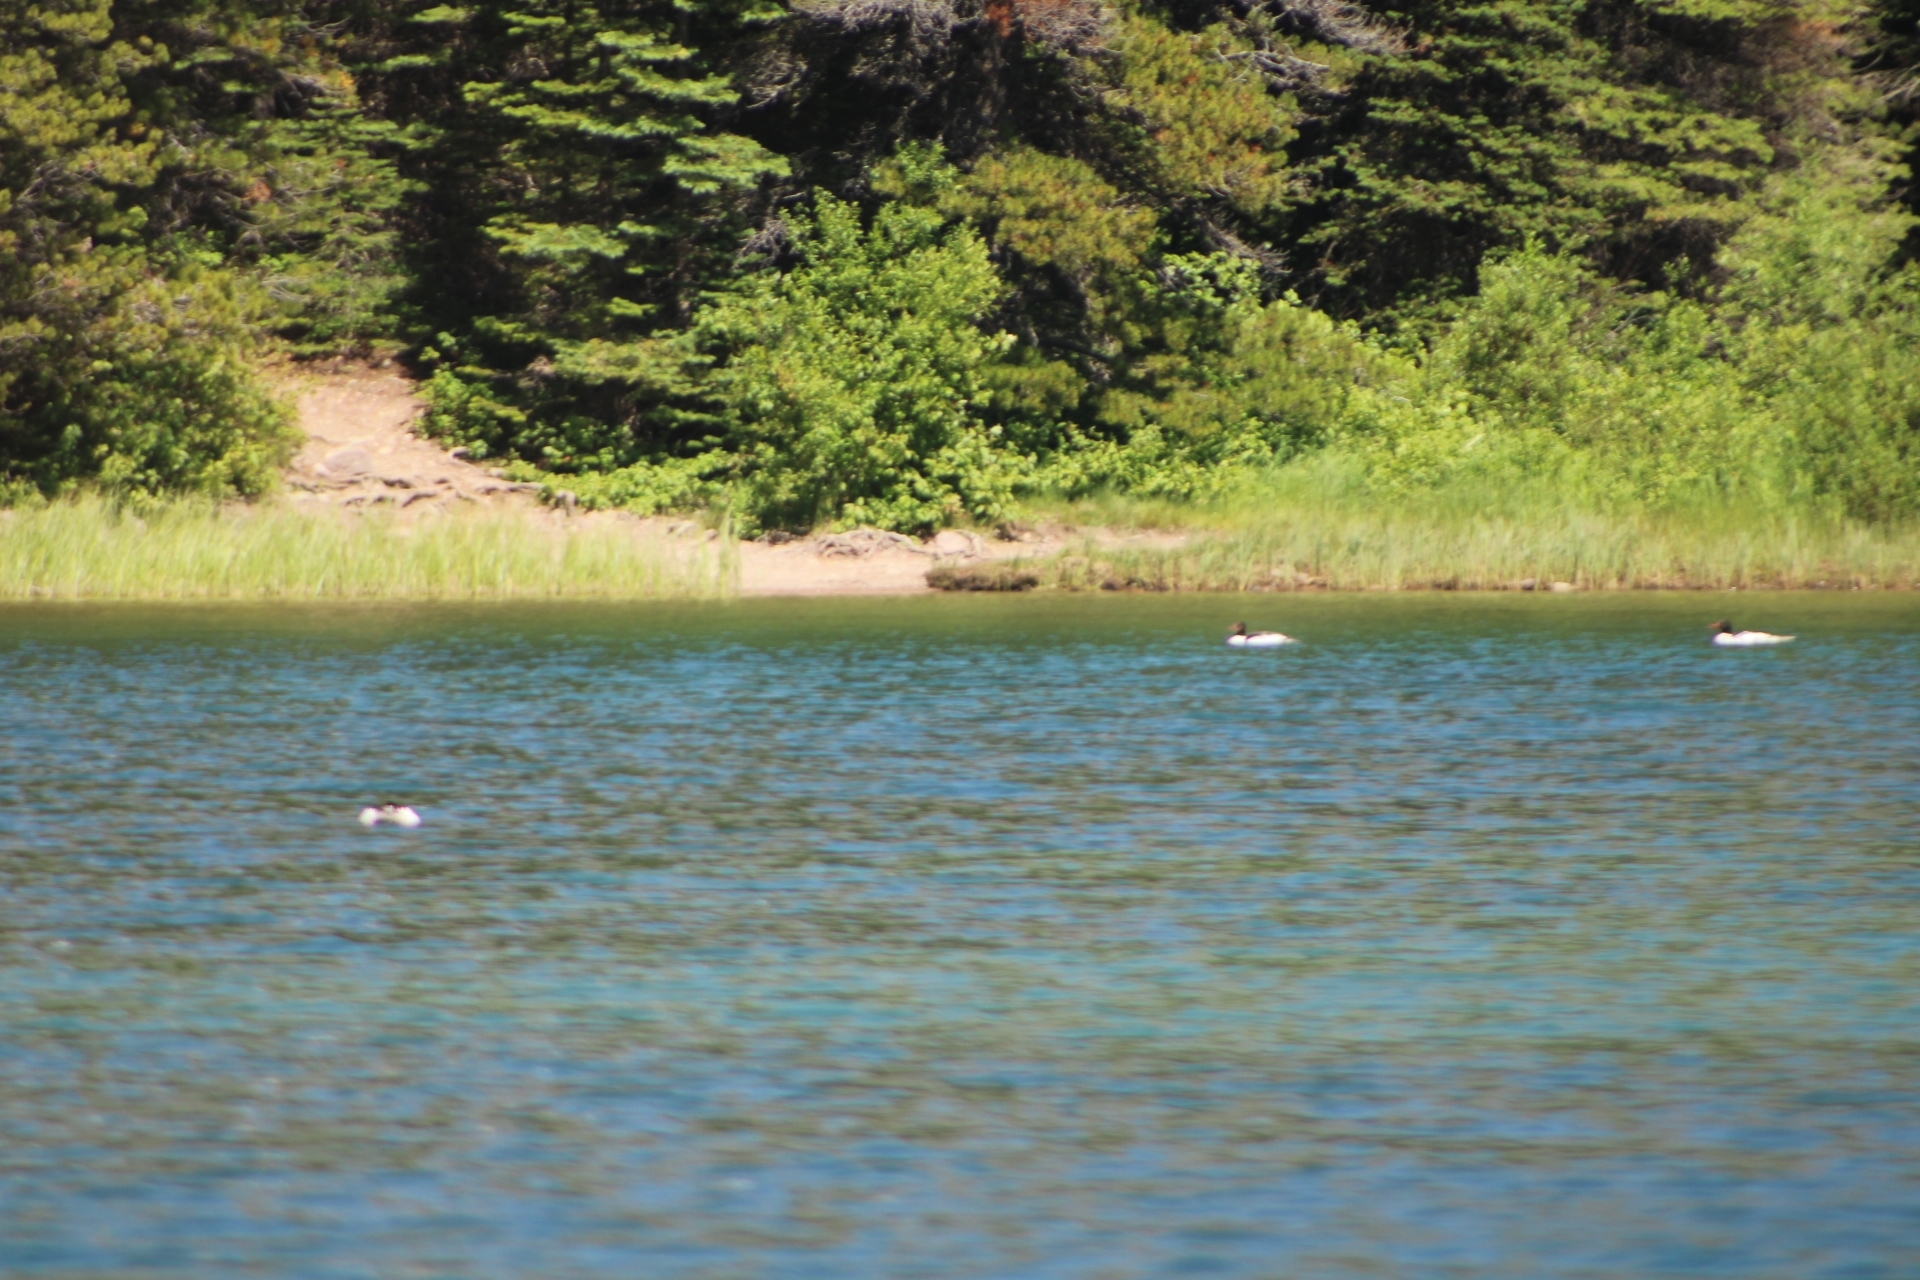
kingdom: Animalia
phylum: Chordata
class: Aves
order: Anseriformes
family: Anatidae
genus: Mergus
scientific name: Mergus merganser
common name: Common merganser
